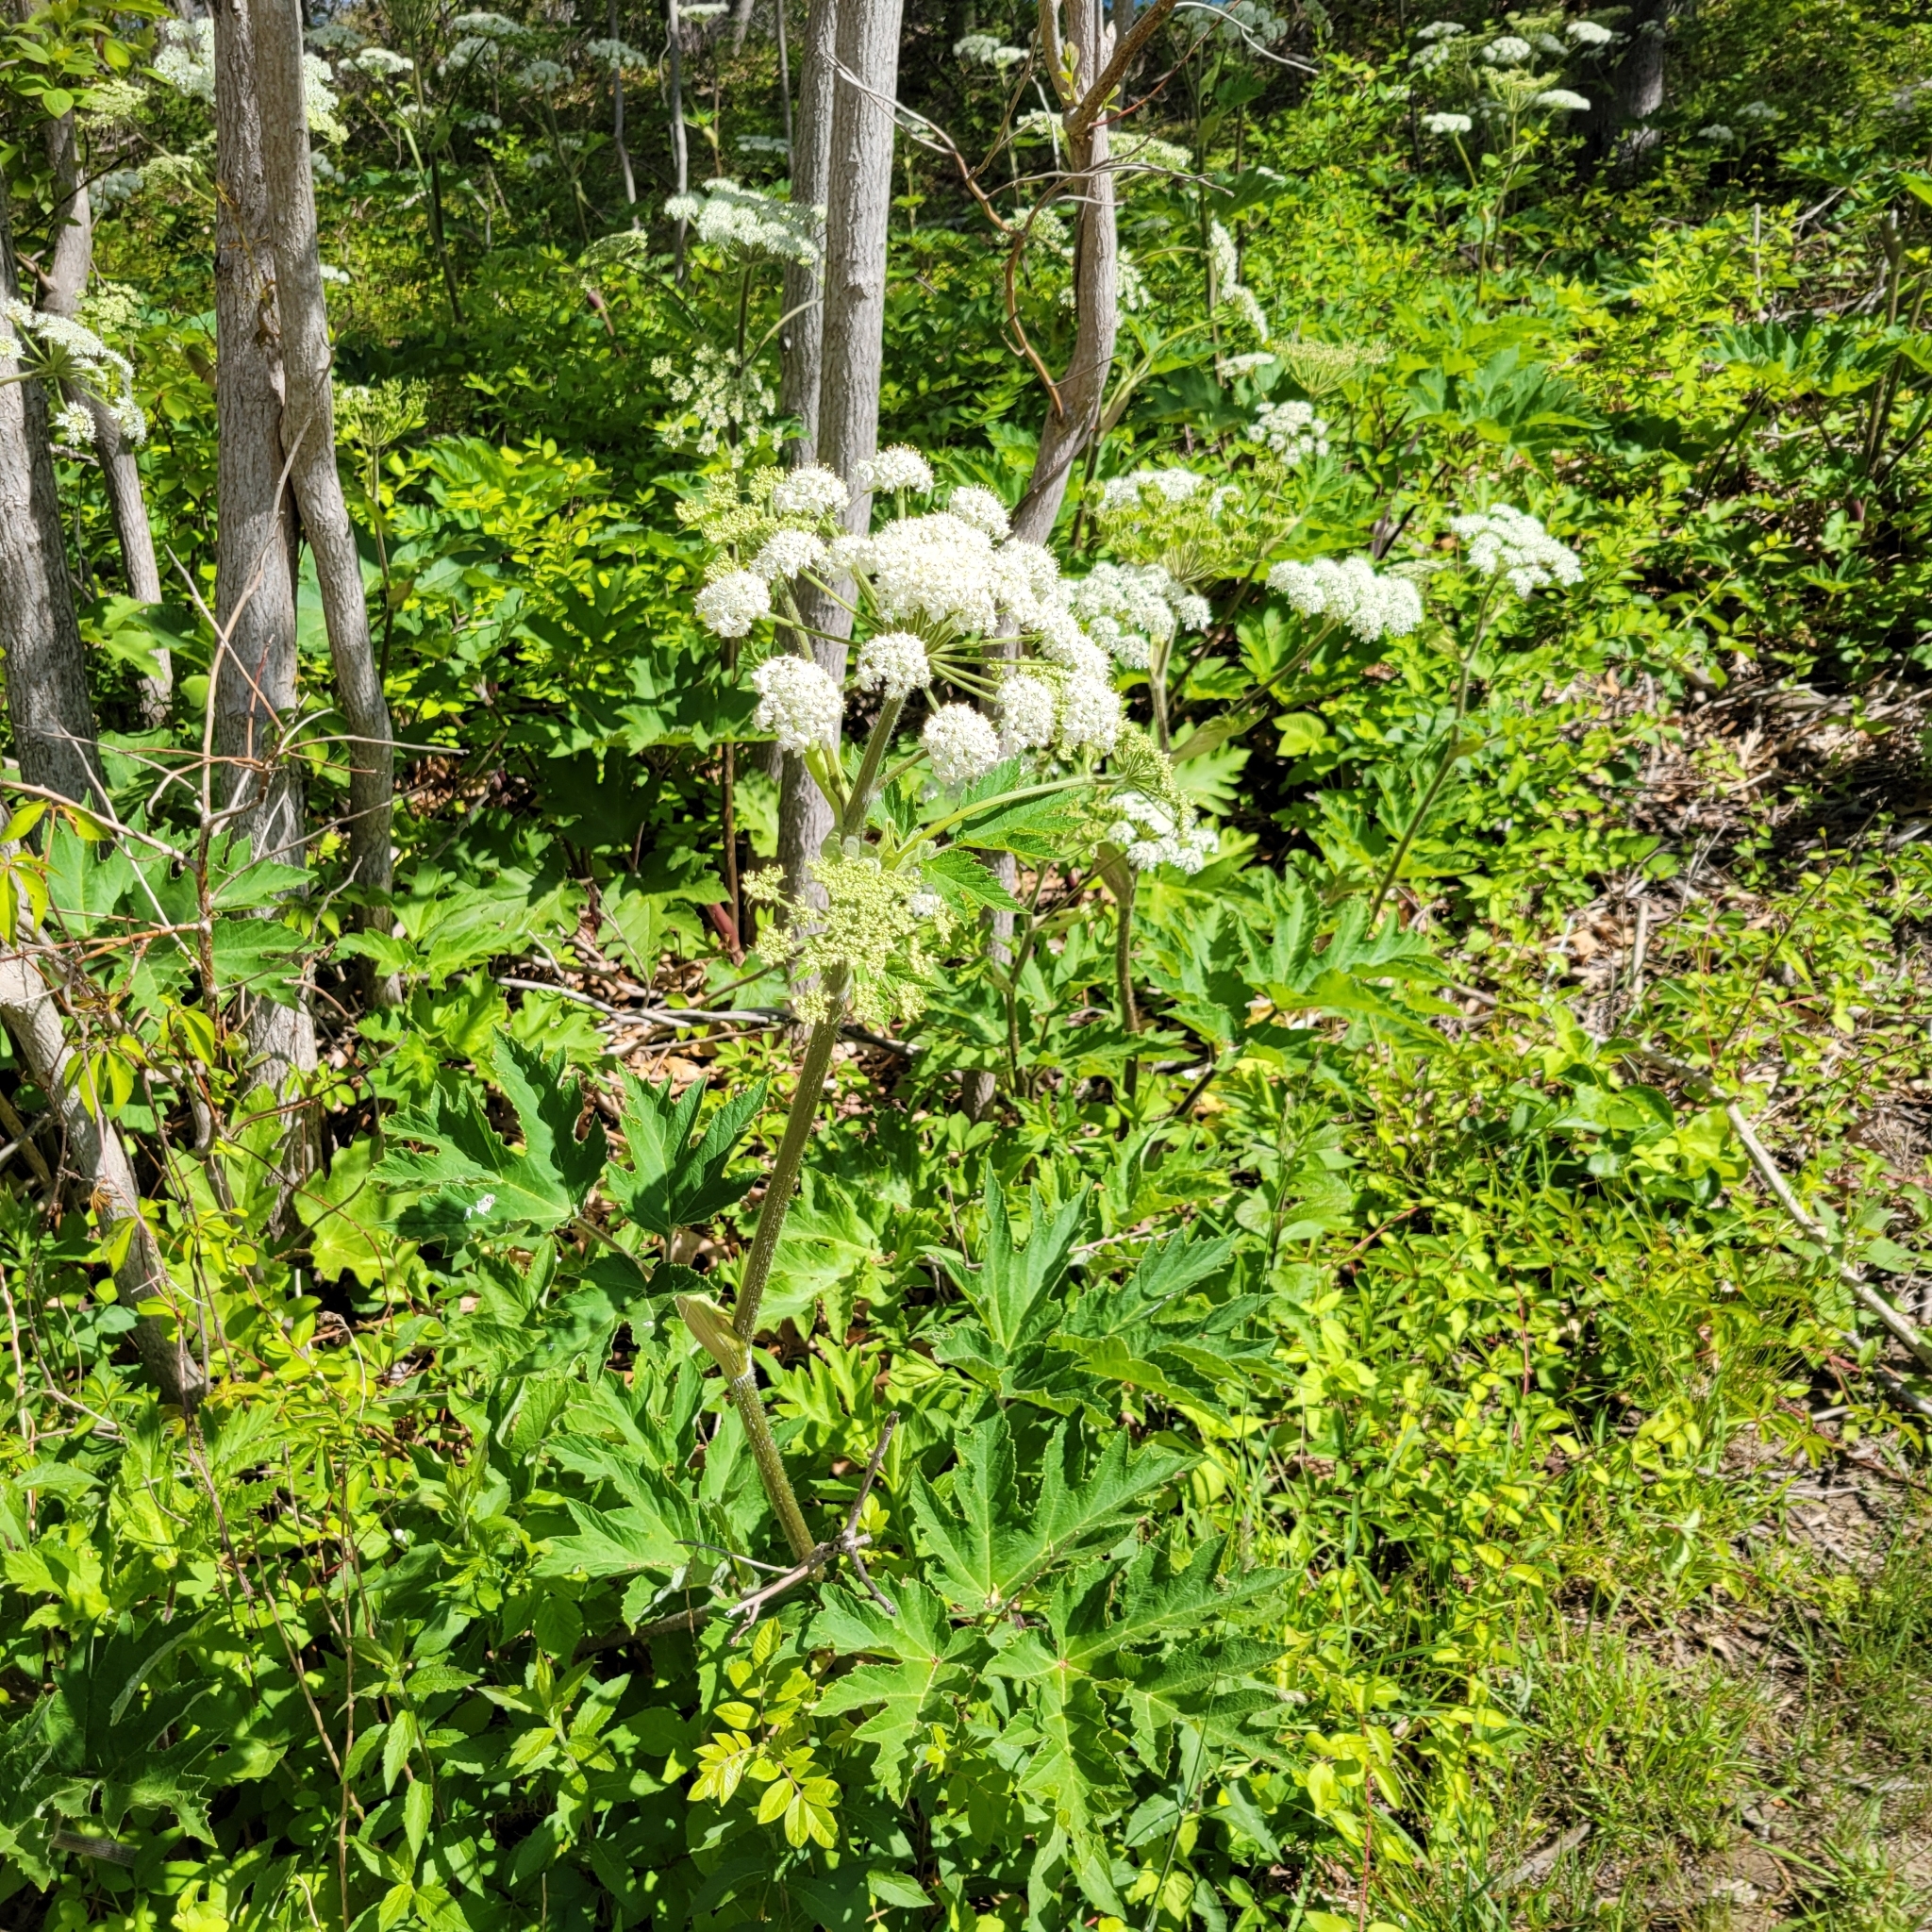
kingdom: Plantae
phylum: Tracheophyta
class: Magnoliopsida
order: Apiales
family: Apiaceae
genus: Heracleum
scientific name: Heracleum maximum
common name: American cow parsnip
